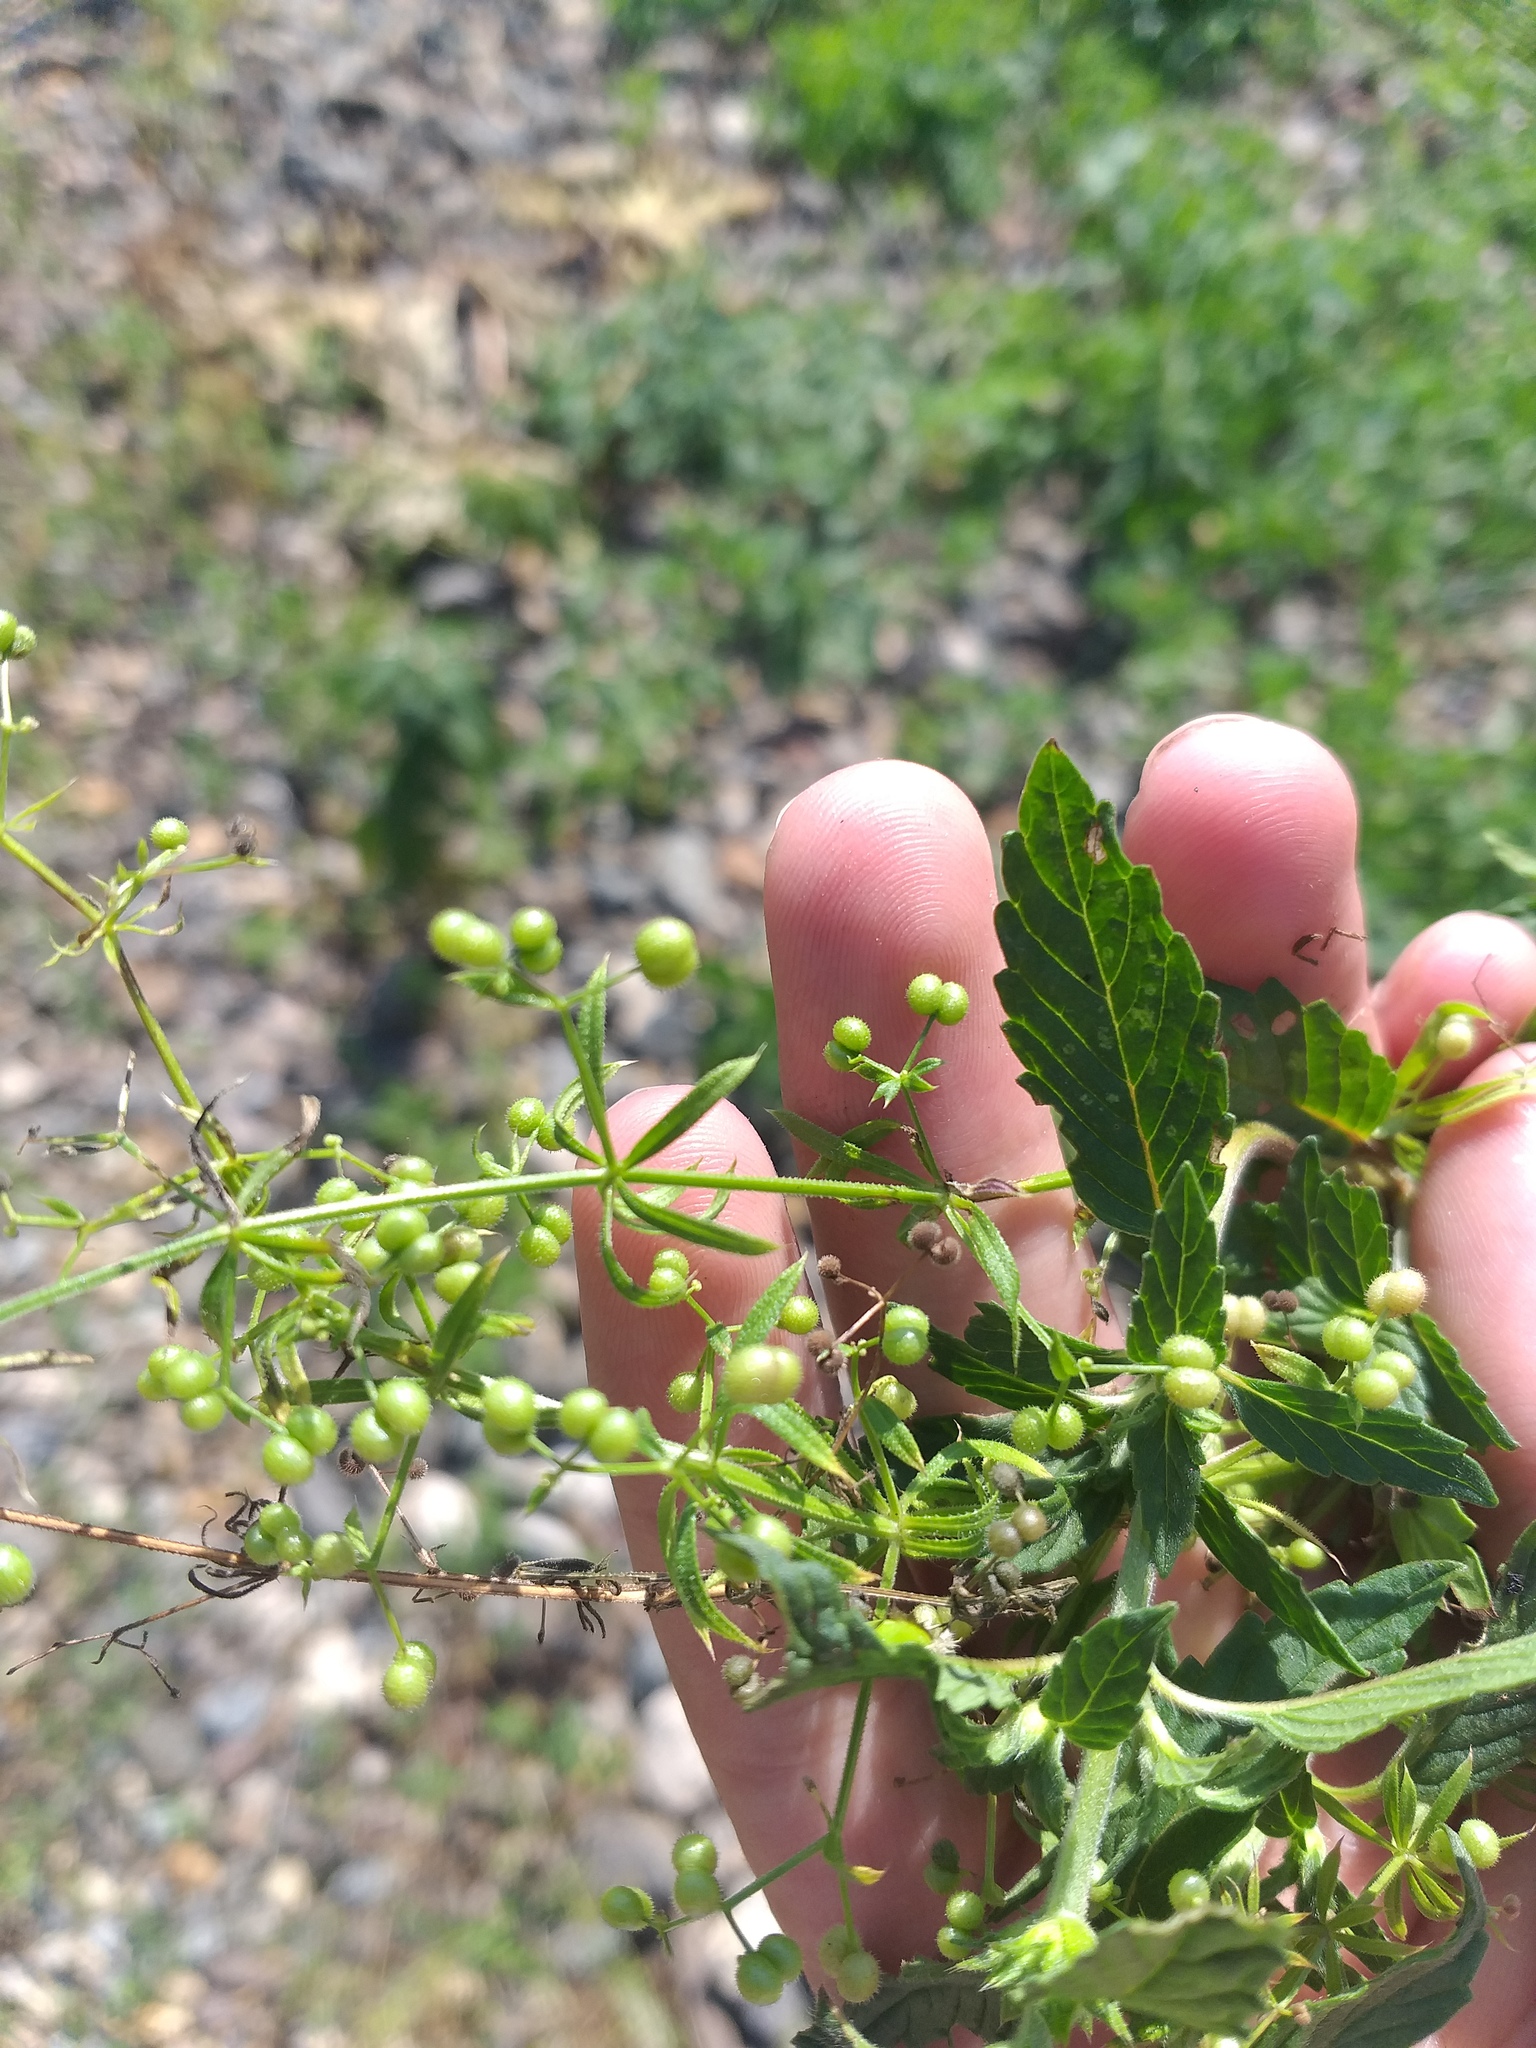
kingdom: Plantae
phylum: Tracheophyta
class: Magnoliopsida
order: Gentianales
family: Rubiaceae
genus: Galium
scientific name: Galium
